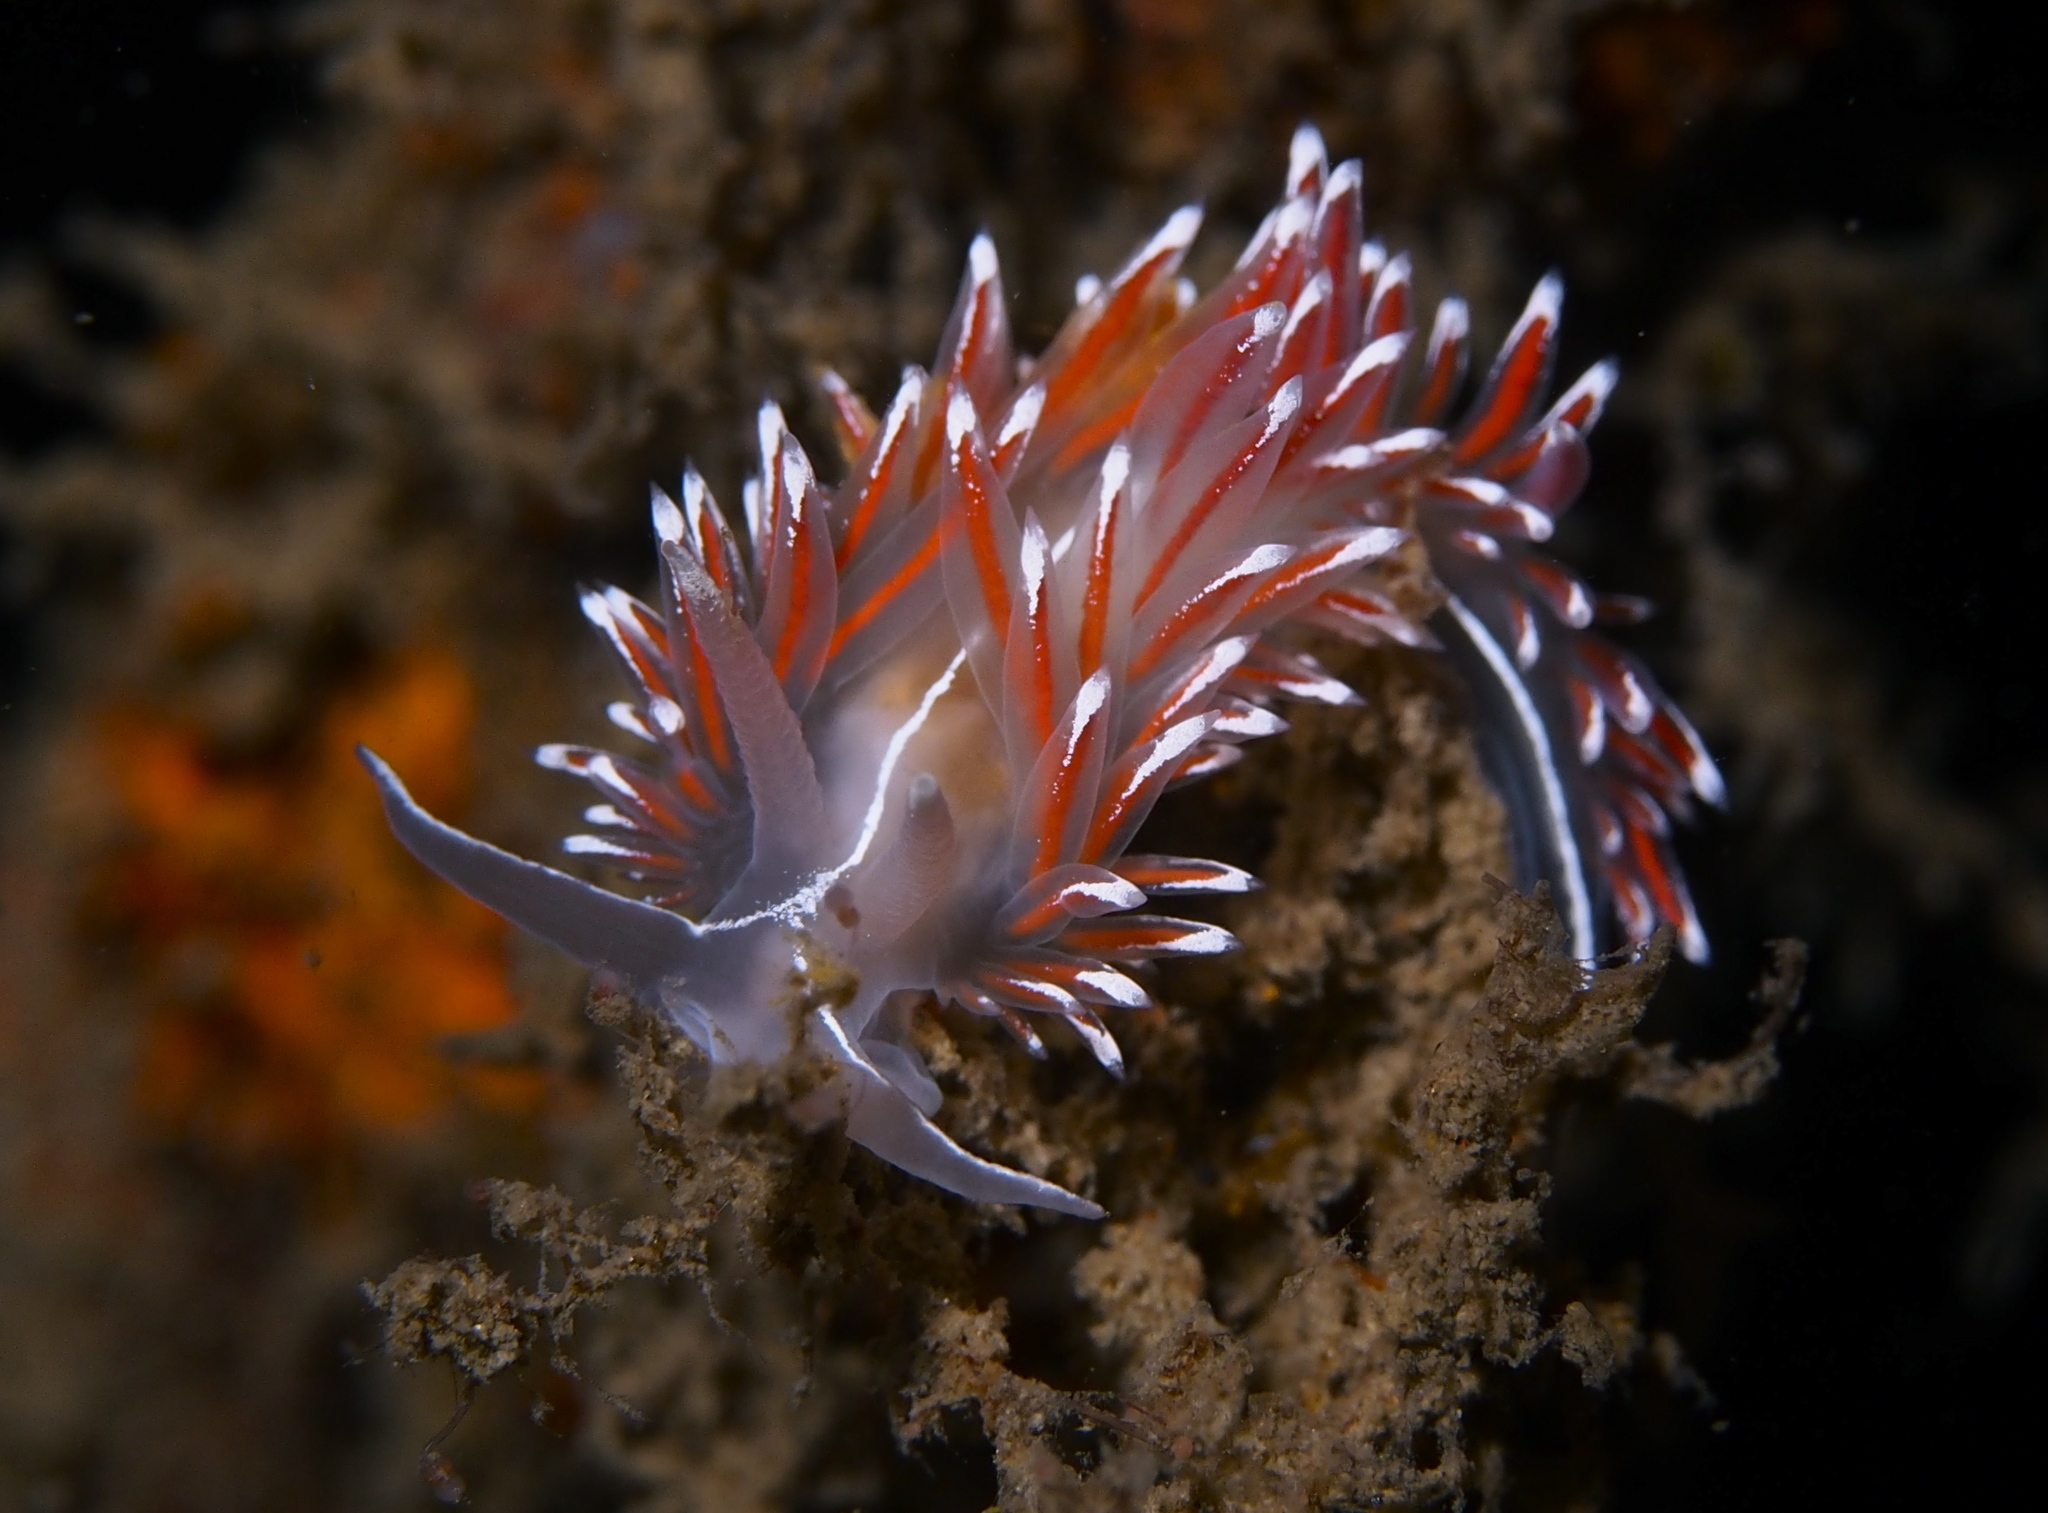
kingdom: Animalia
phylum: Mollusca
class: Gastropoda
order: Nudibranchia
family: Coryphellidae
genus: Coryphella
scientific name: Coryphella lineata
